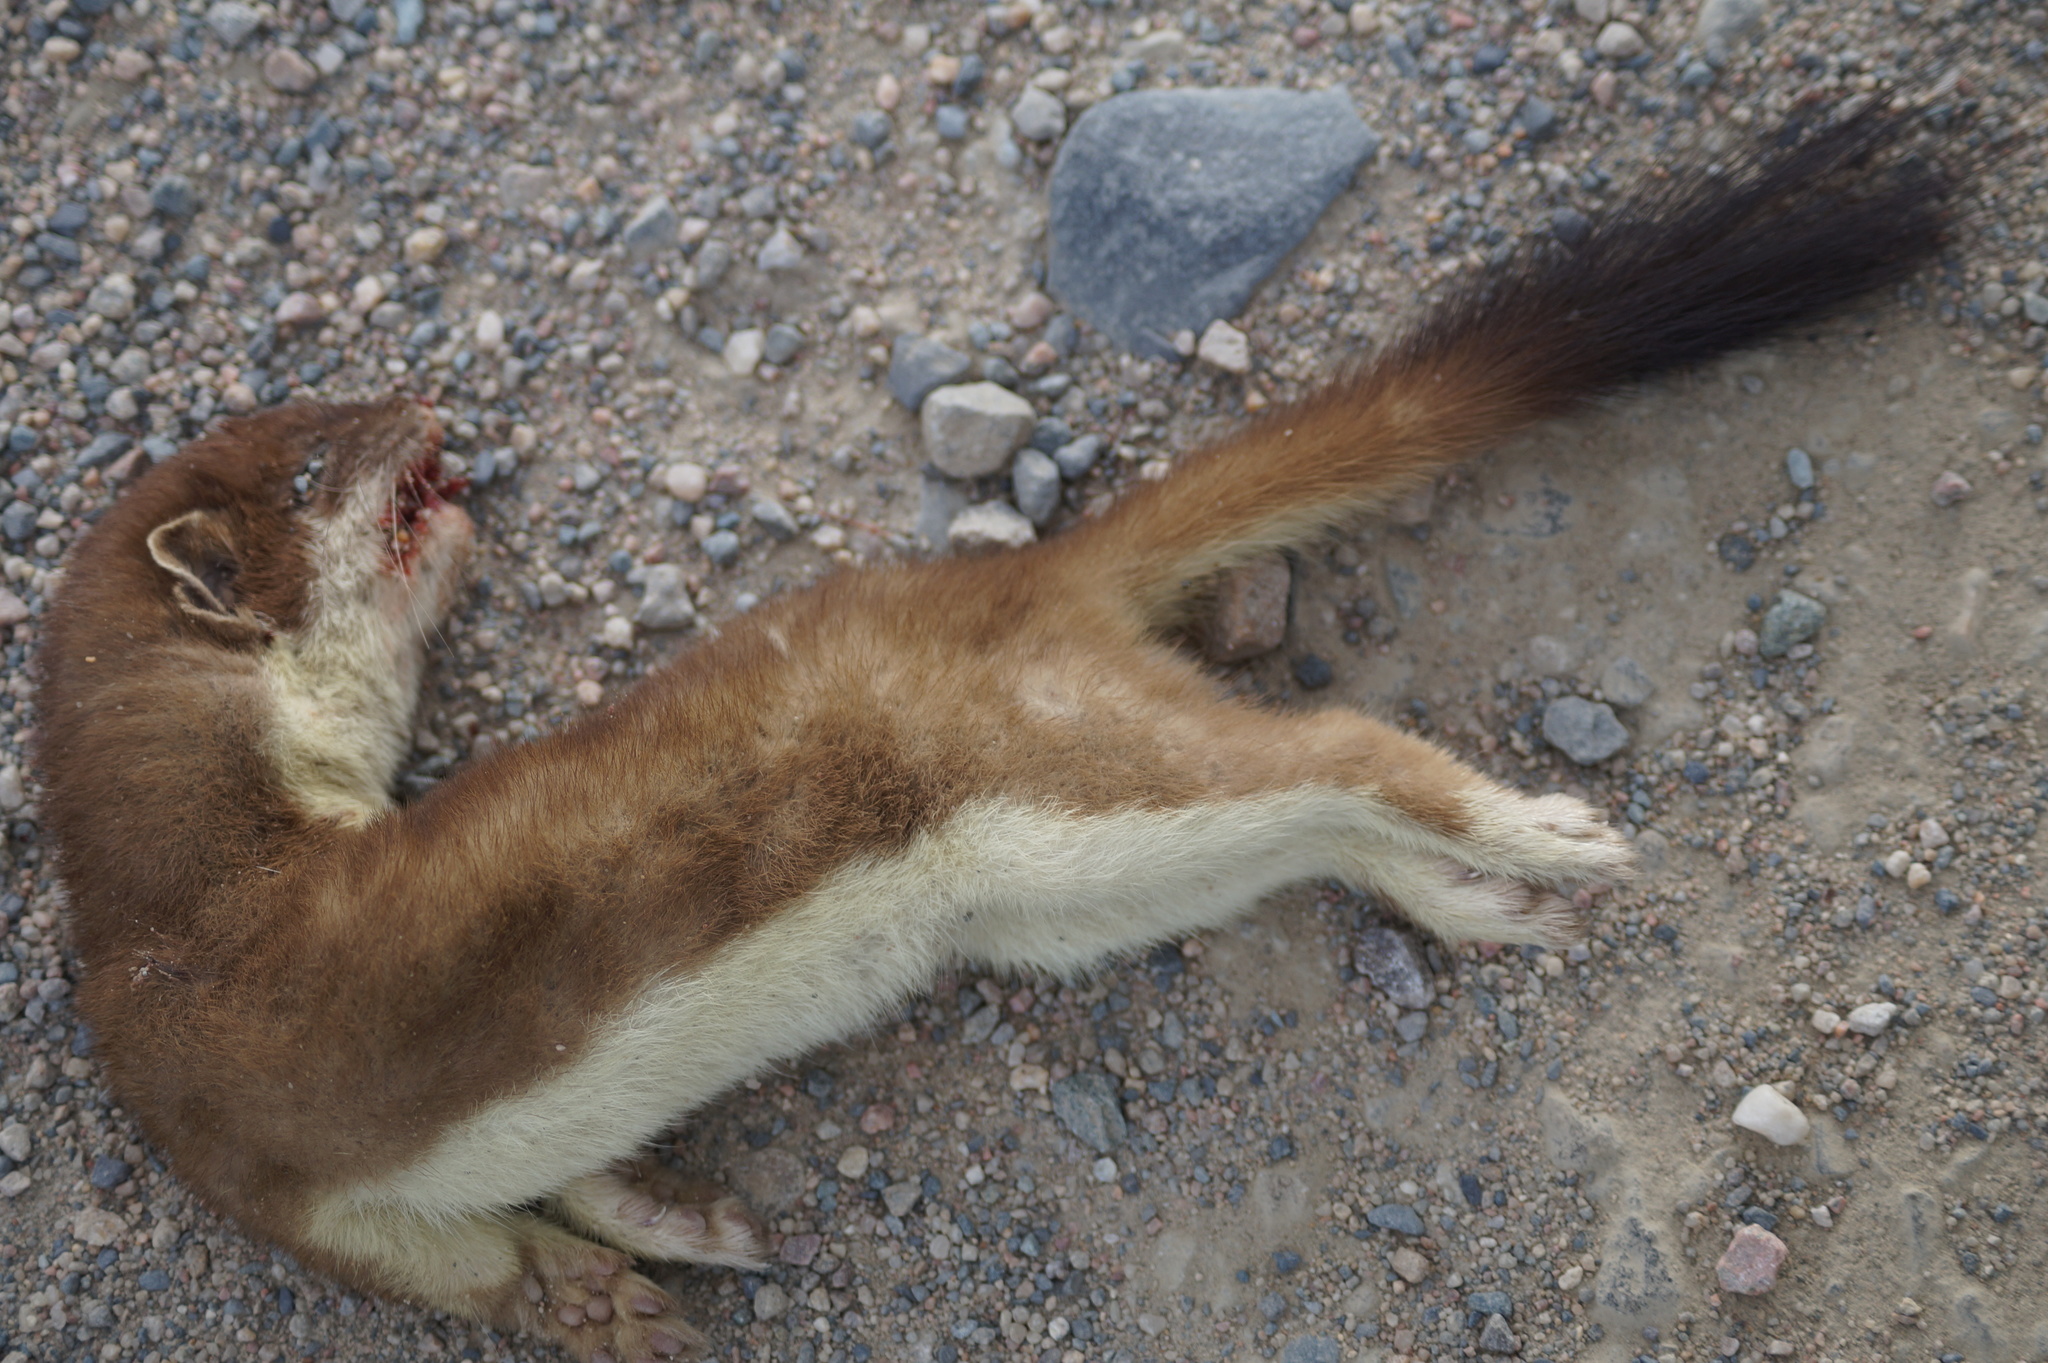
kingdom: Animalia
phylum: Chordata
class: Mammalia
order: Carnivora
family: Mustelidae
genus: Mustela
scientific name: Mustela erminea
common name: Stoat
